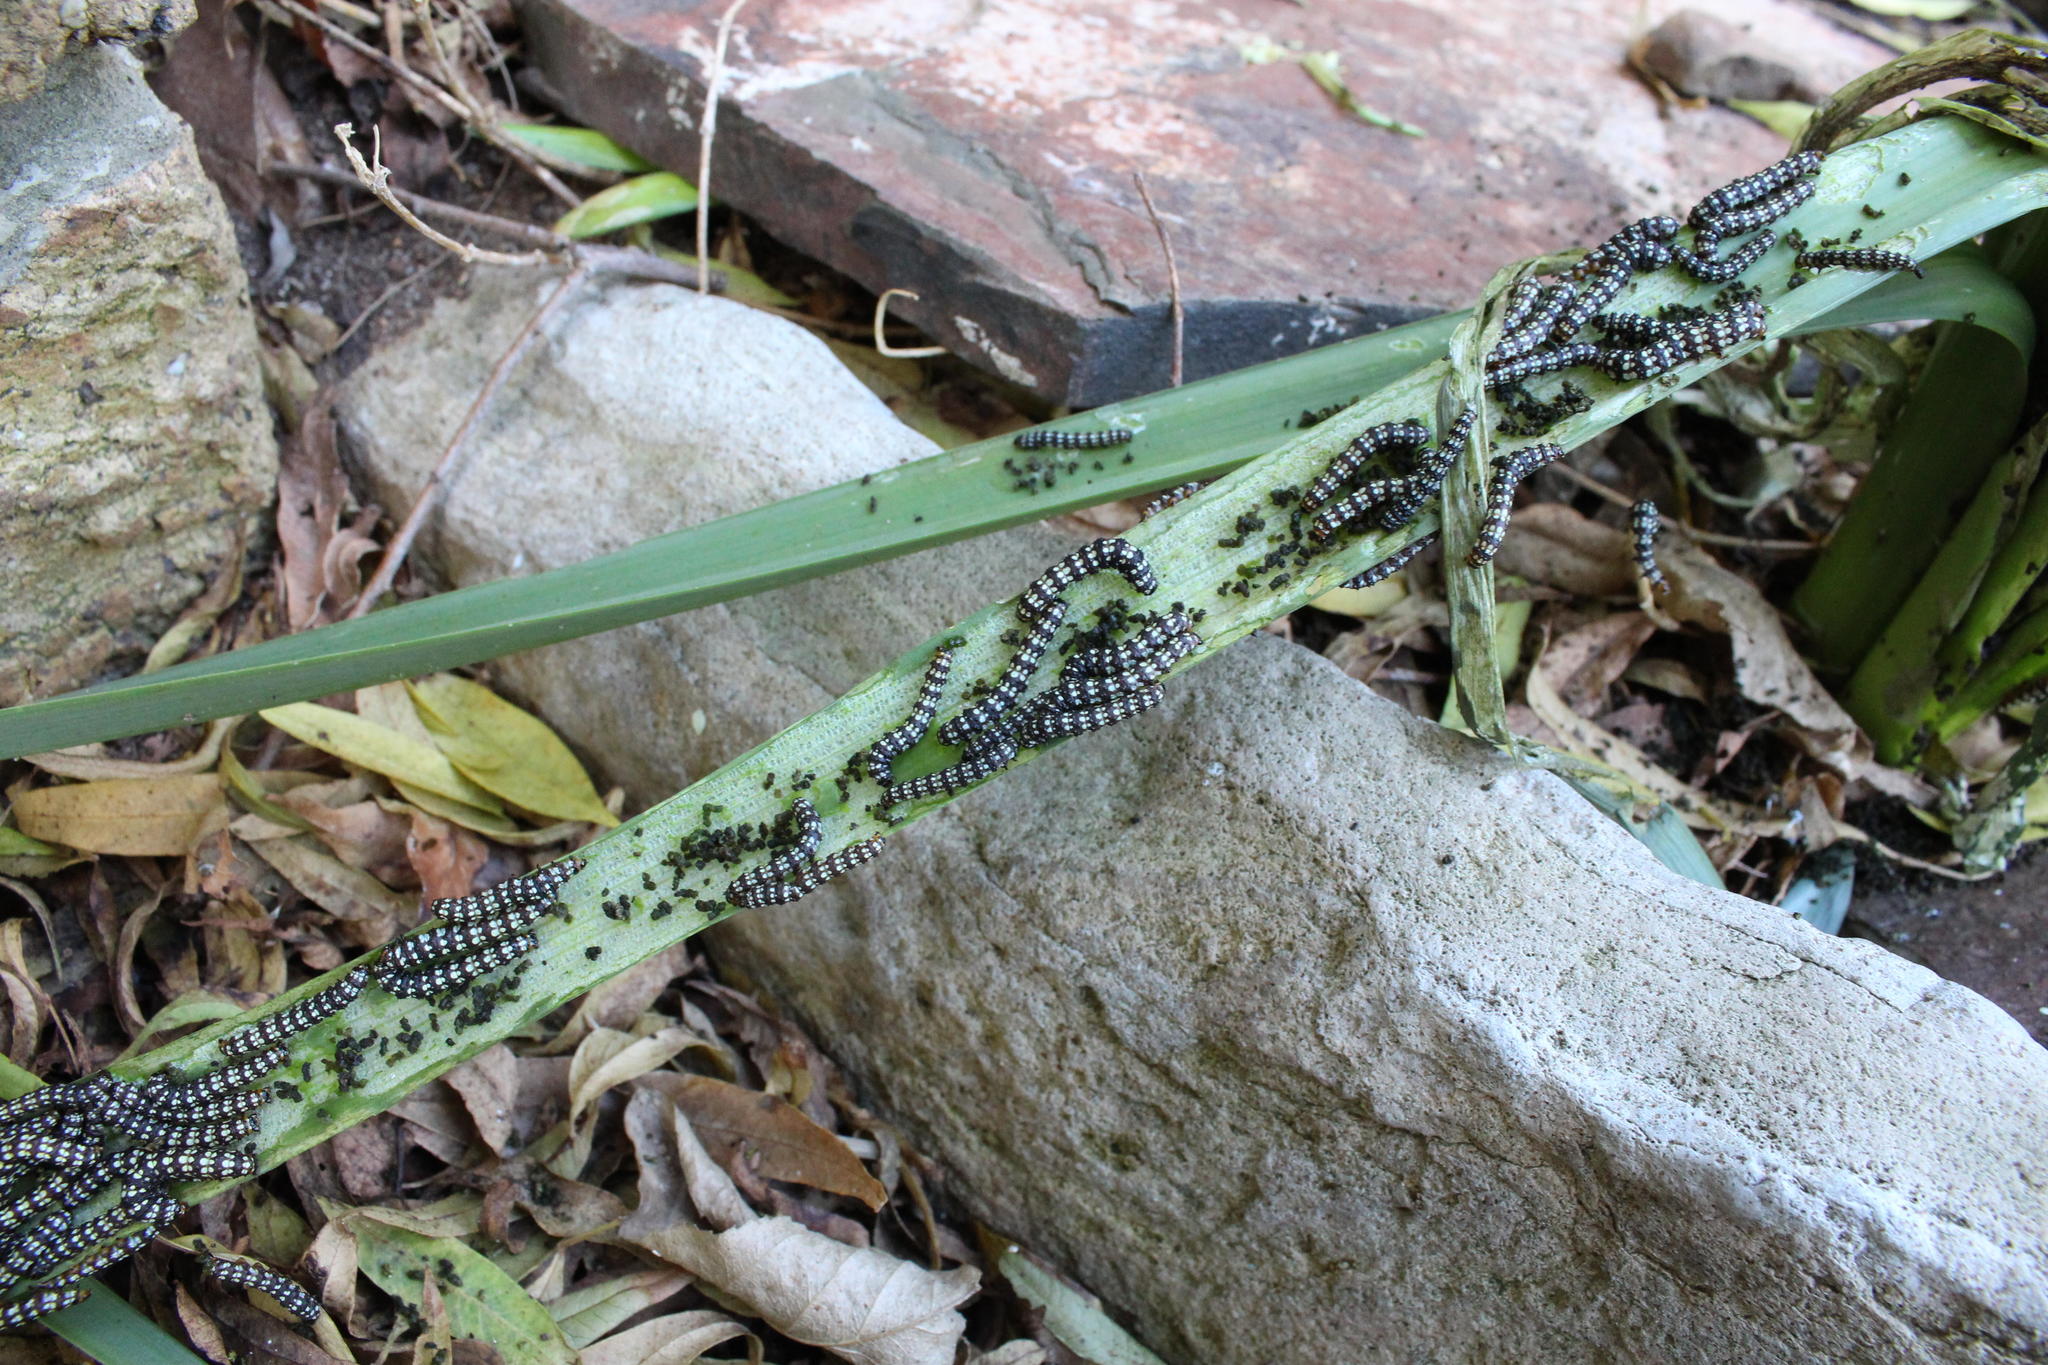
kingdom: Animalia
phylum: Arthropoda
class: Insecta
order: Lepidoptera
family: Noctuidae
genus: Brithys
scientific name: Brithys crini
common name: Kew arches
